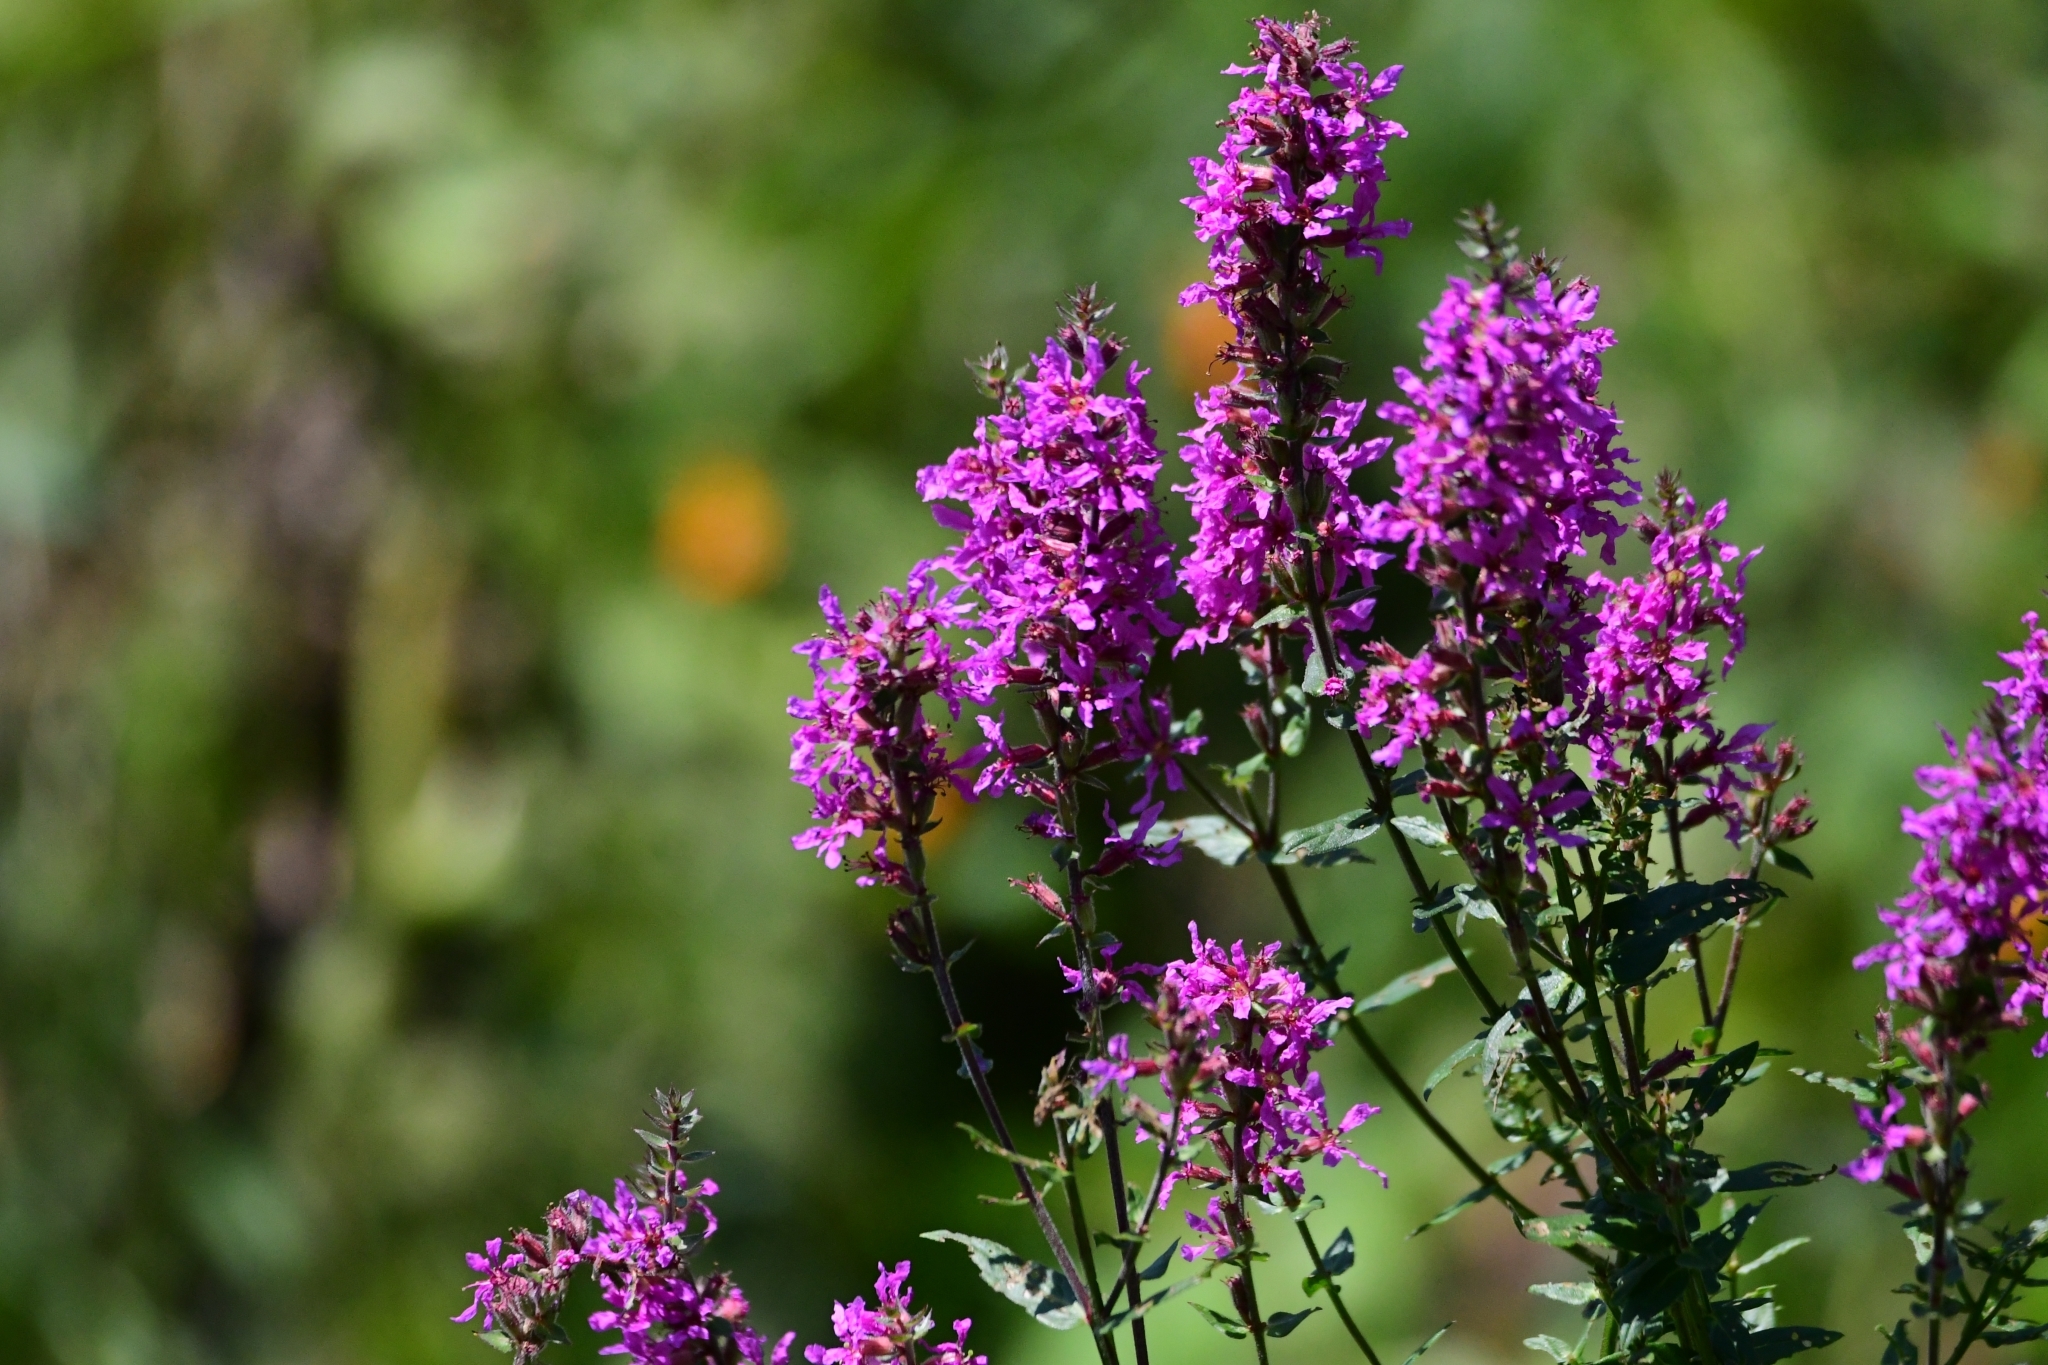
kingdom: Plantae
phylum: Tracheophyta
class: Magnoliopsida
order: Myrtales
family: Lythraceae
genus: Lythrum
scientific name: Lythrum salicaria
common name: Purple loosestrife
